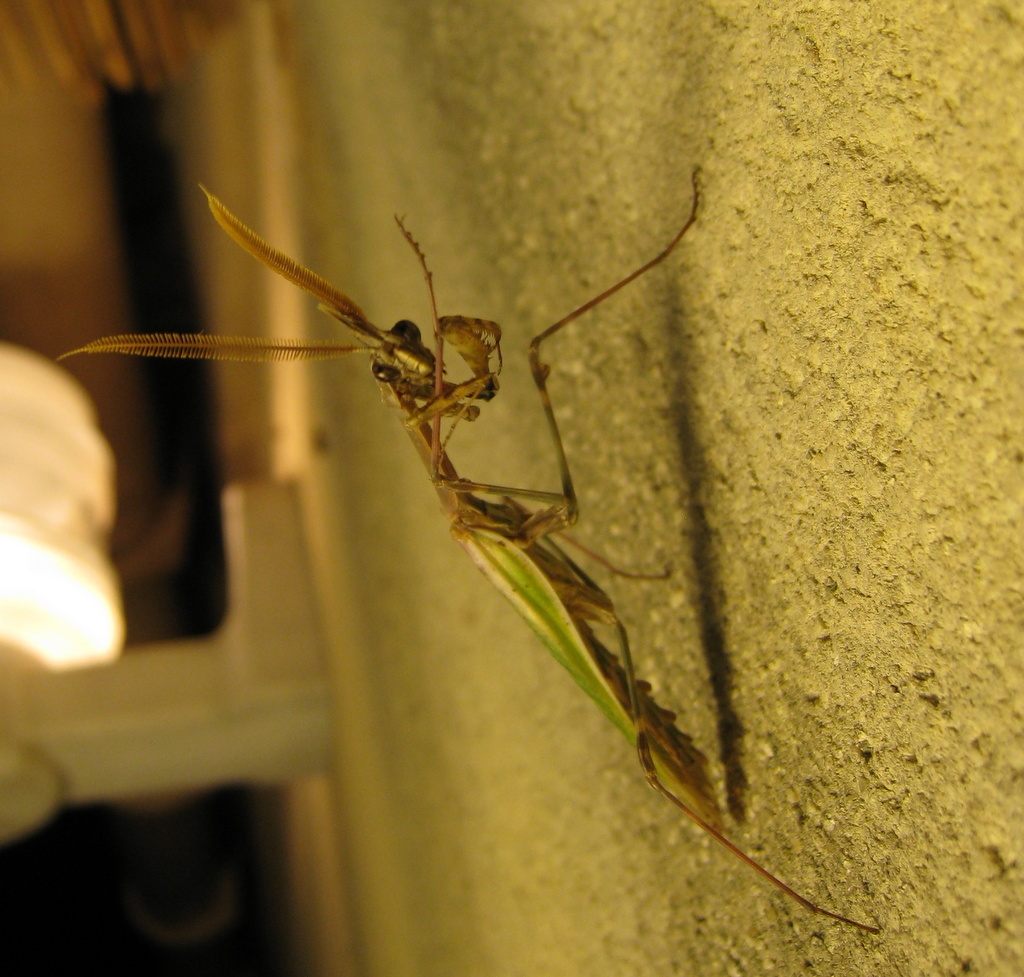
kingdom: Animalia
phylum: Arthropoda
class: Insecta
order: Mantodea
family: Empusidae
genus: Empusa
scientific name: Empusa pennata
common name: Conehead mantis
